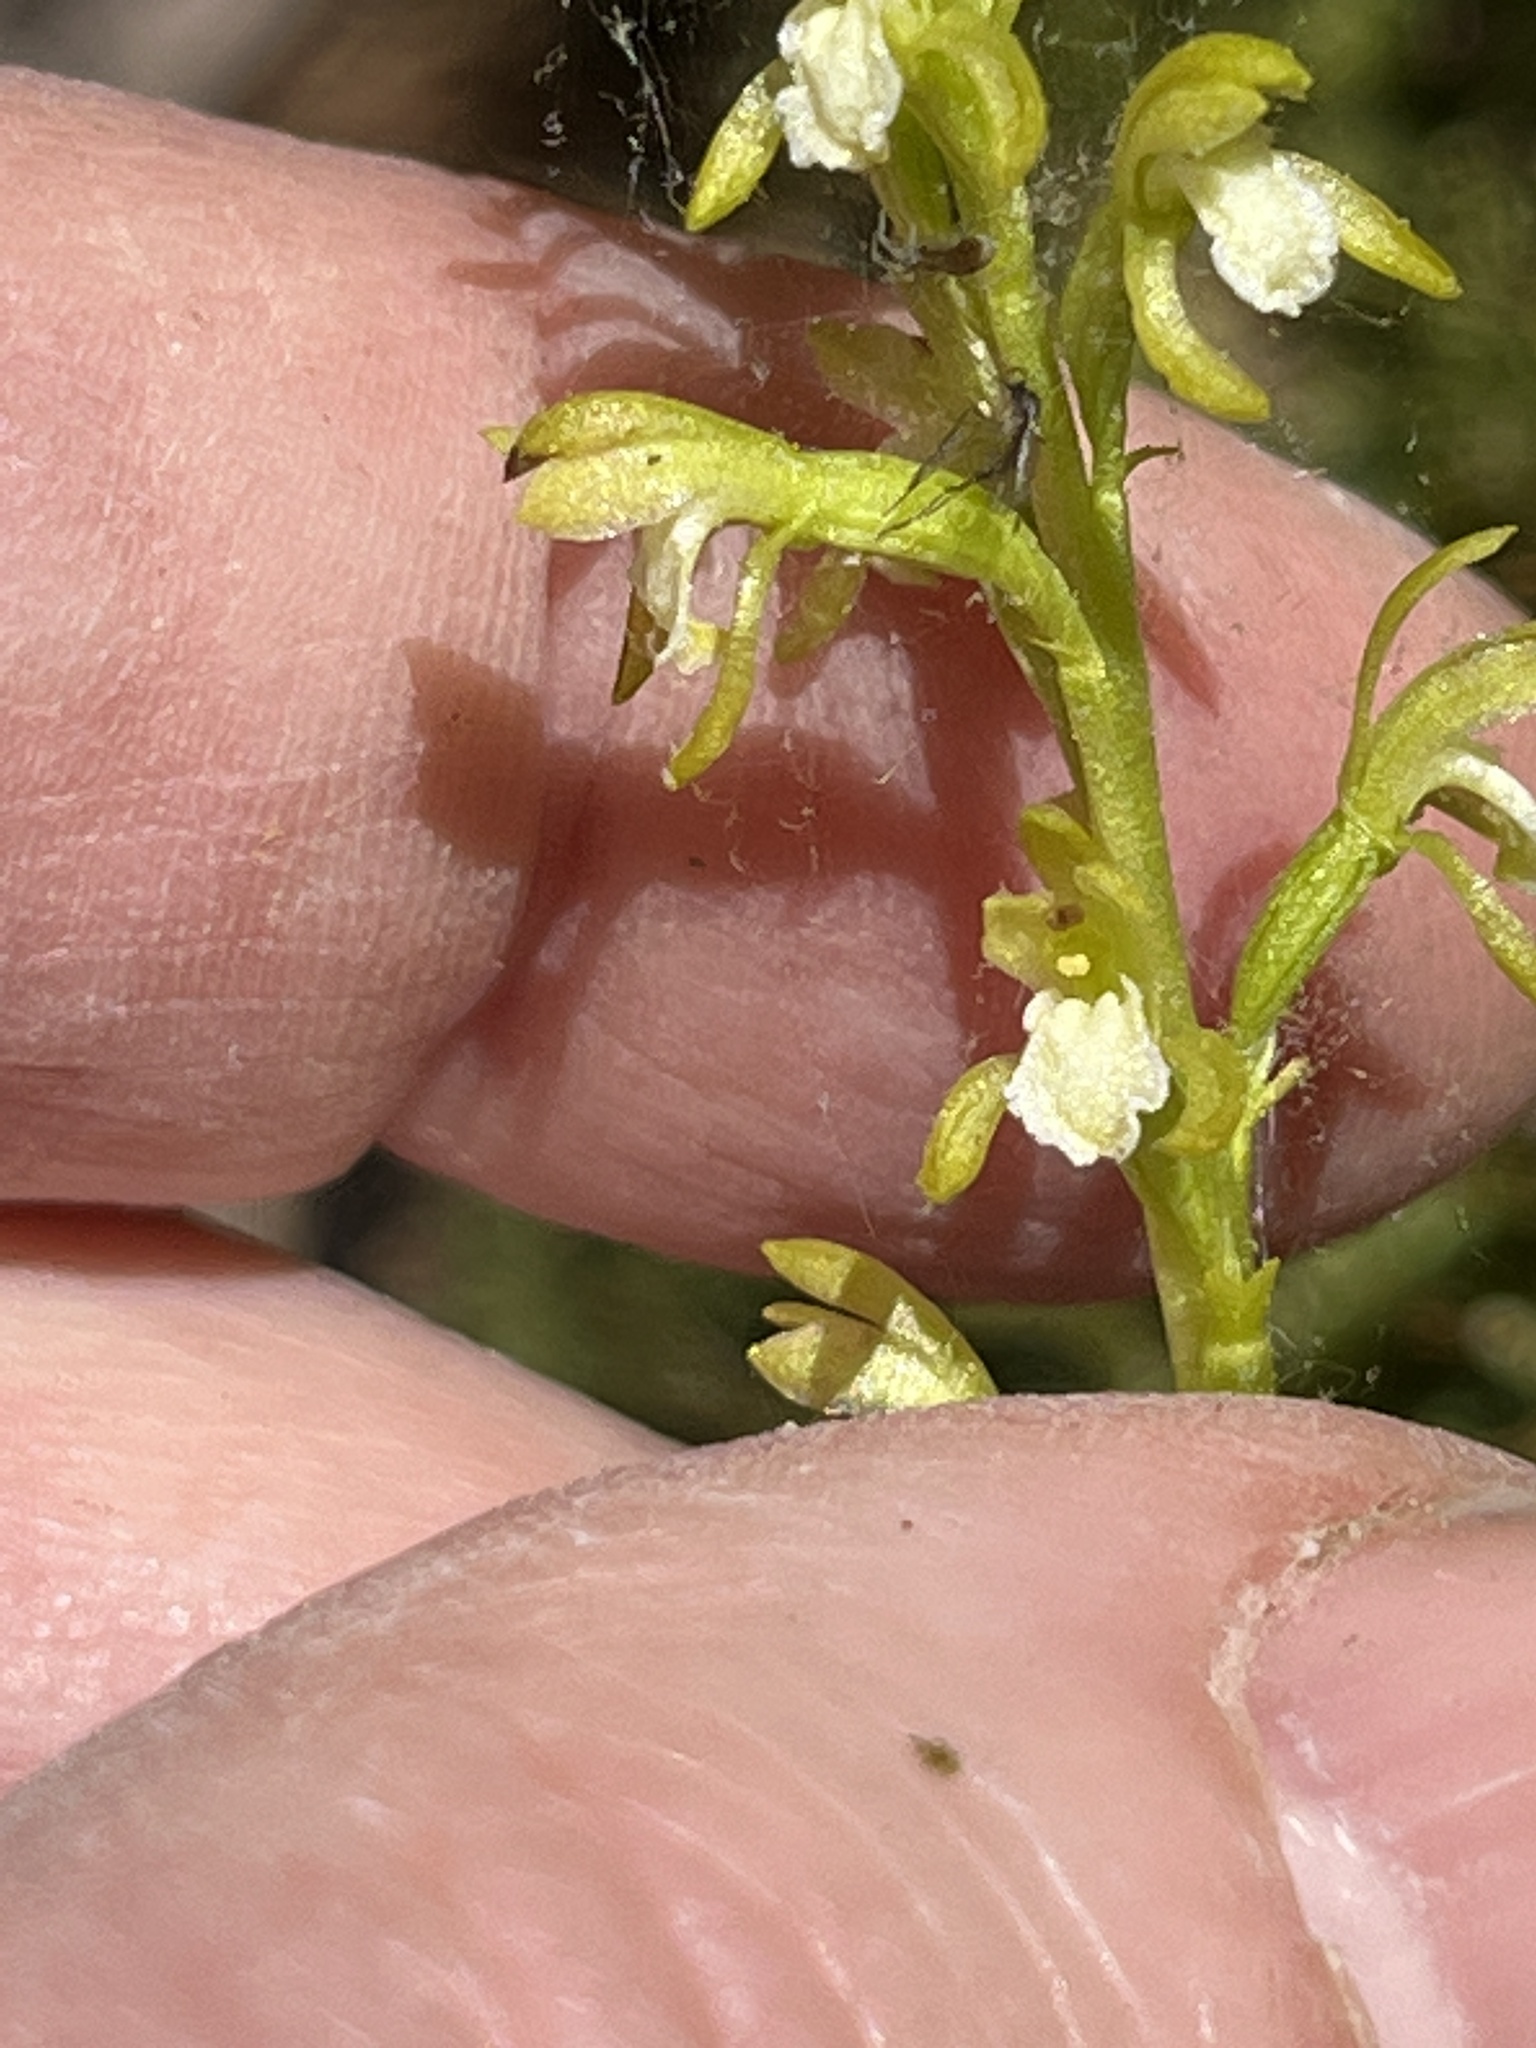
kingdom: Plantae
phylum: Tracheophyta
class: Liliopsida
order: Asparagales
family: Orchidaceae
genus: Corallorhiza
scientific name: Corallorhiza trifida
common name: Yellow coralroot
